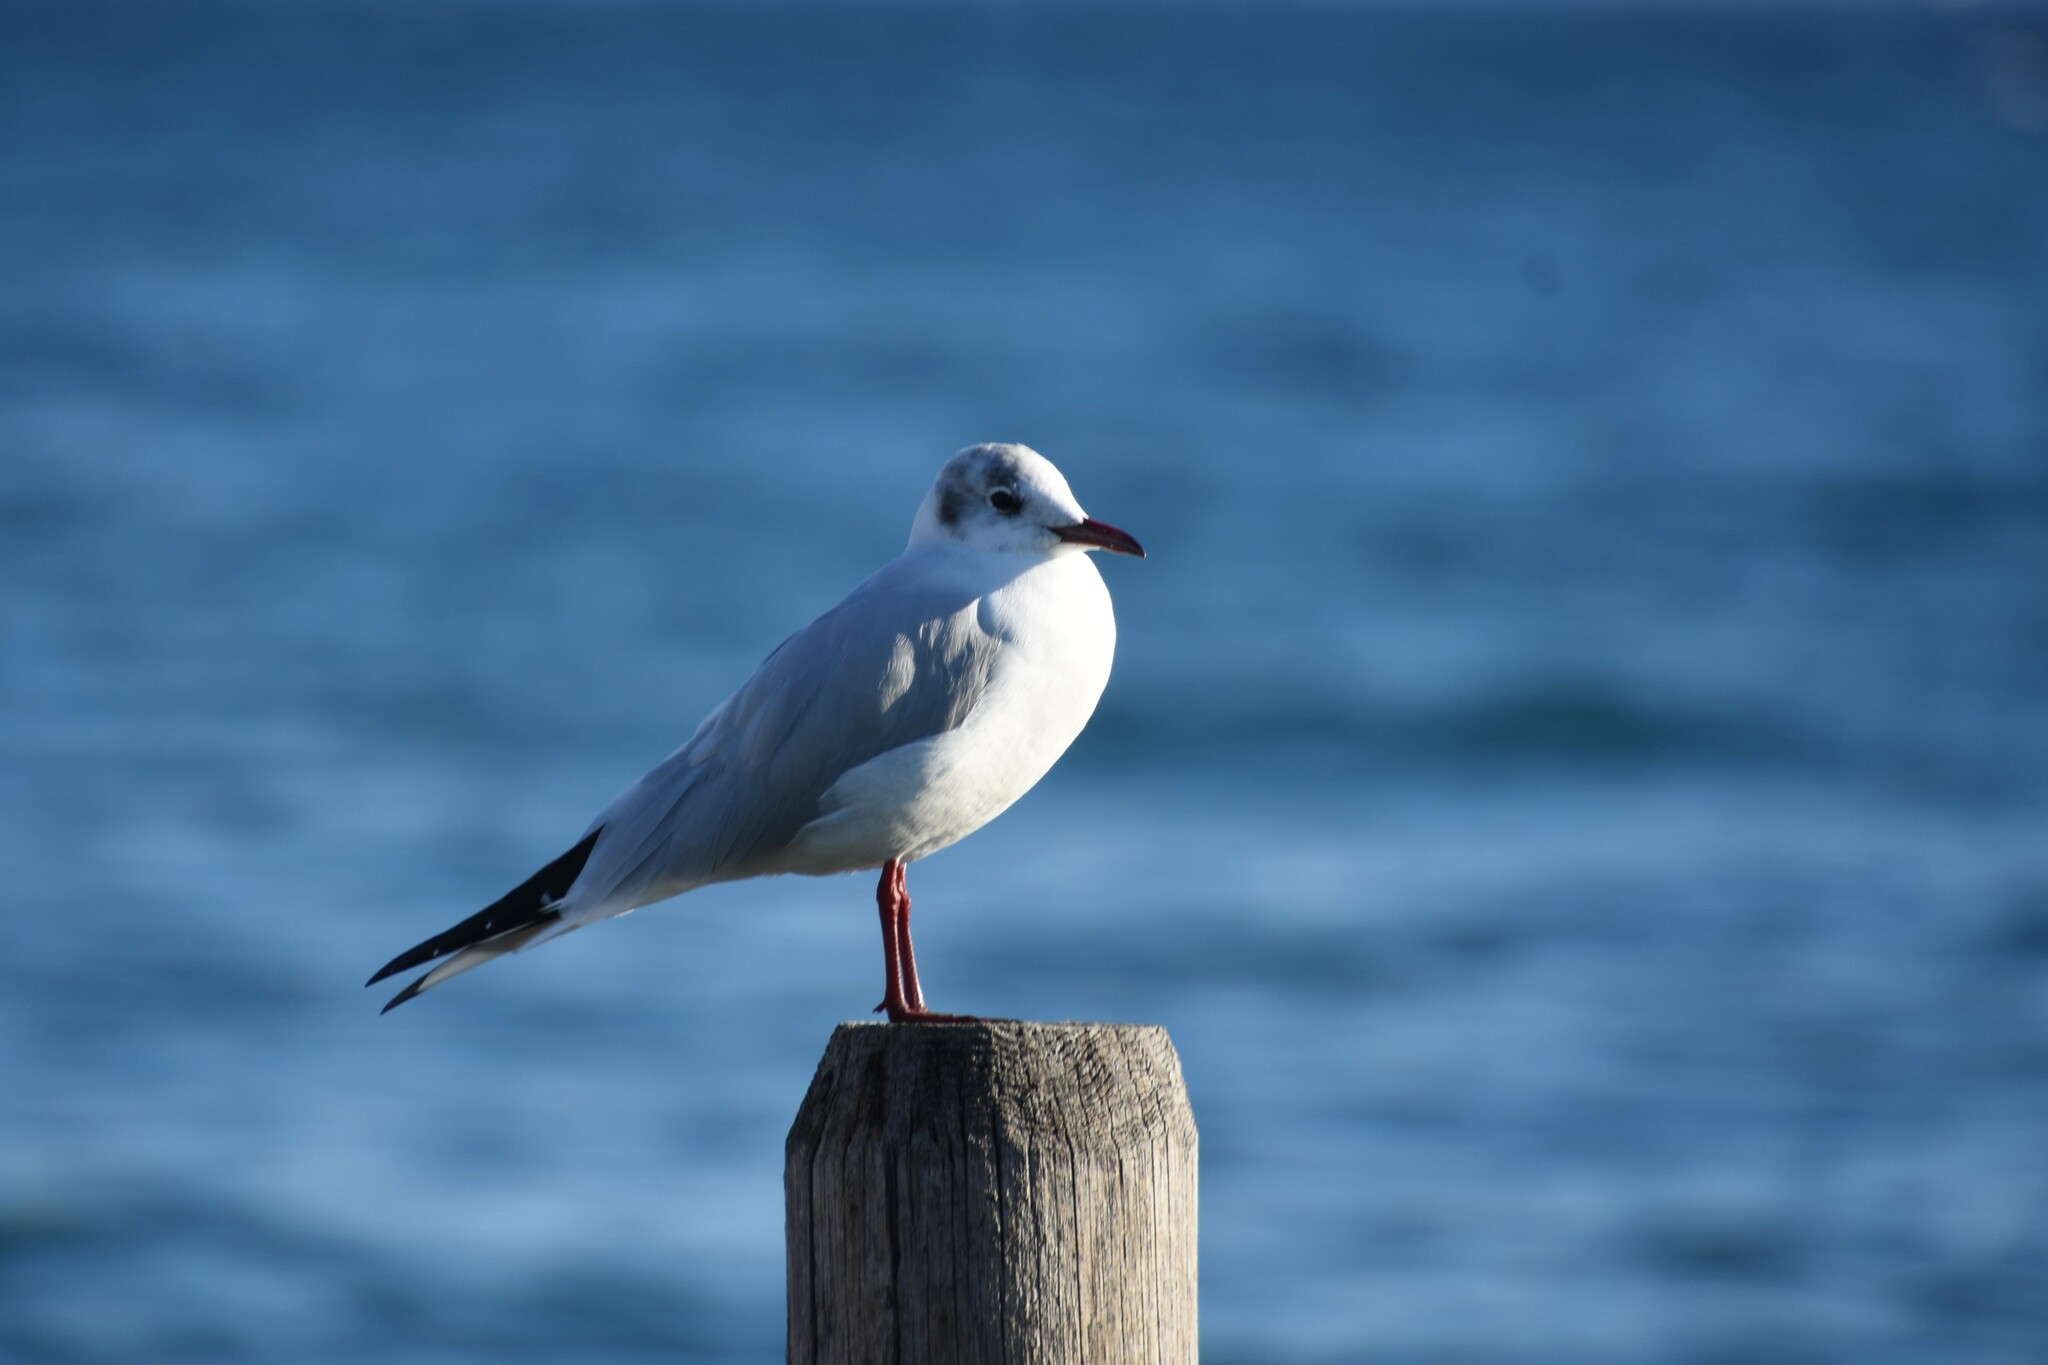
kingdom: Animalia
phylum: Chordata
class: Aves
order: Charadriiformes
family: Laridae
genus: Chroicocephalus
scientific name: Chroicocephalus ridibundus
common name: Black-headed gull
